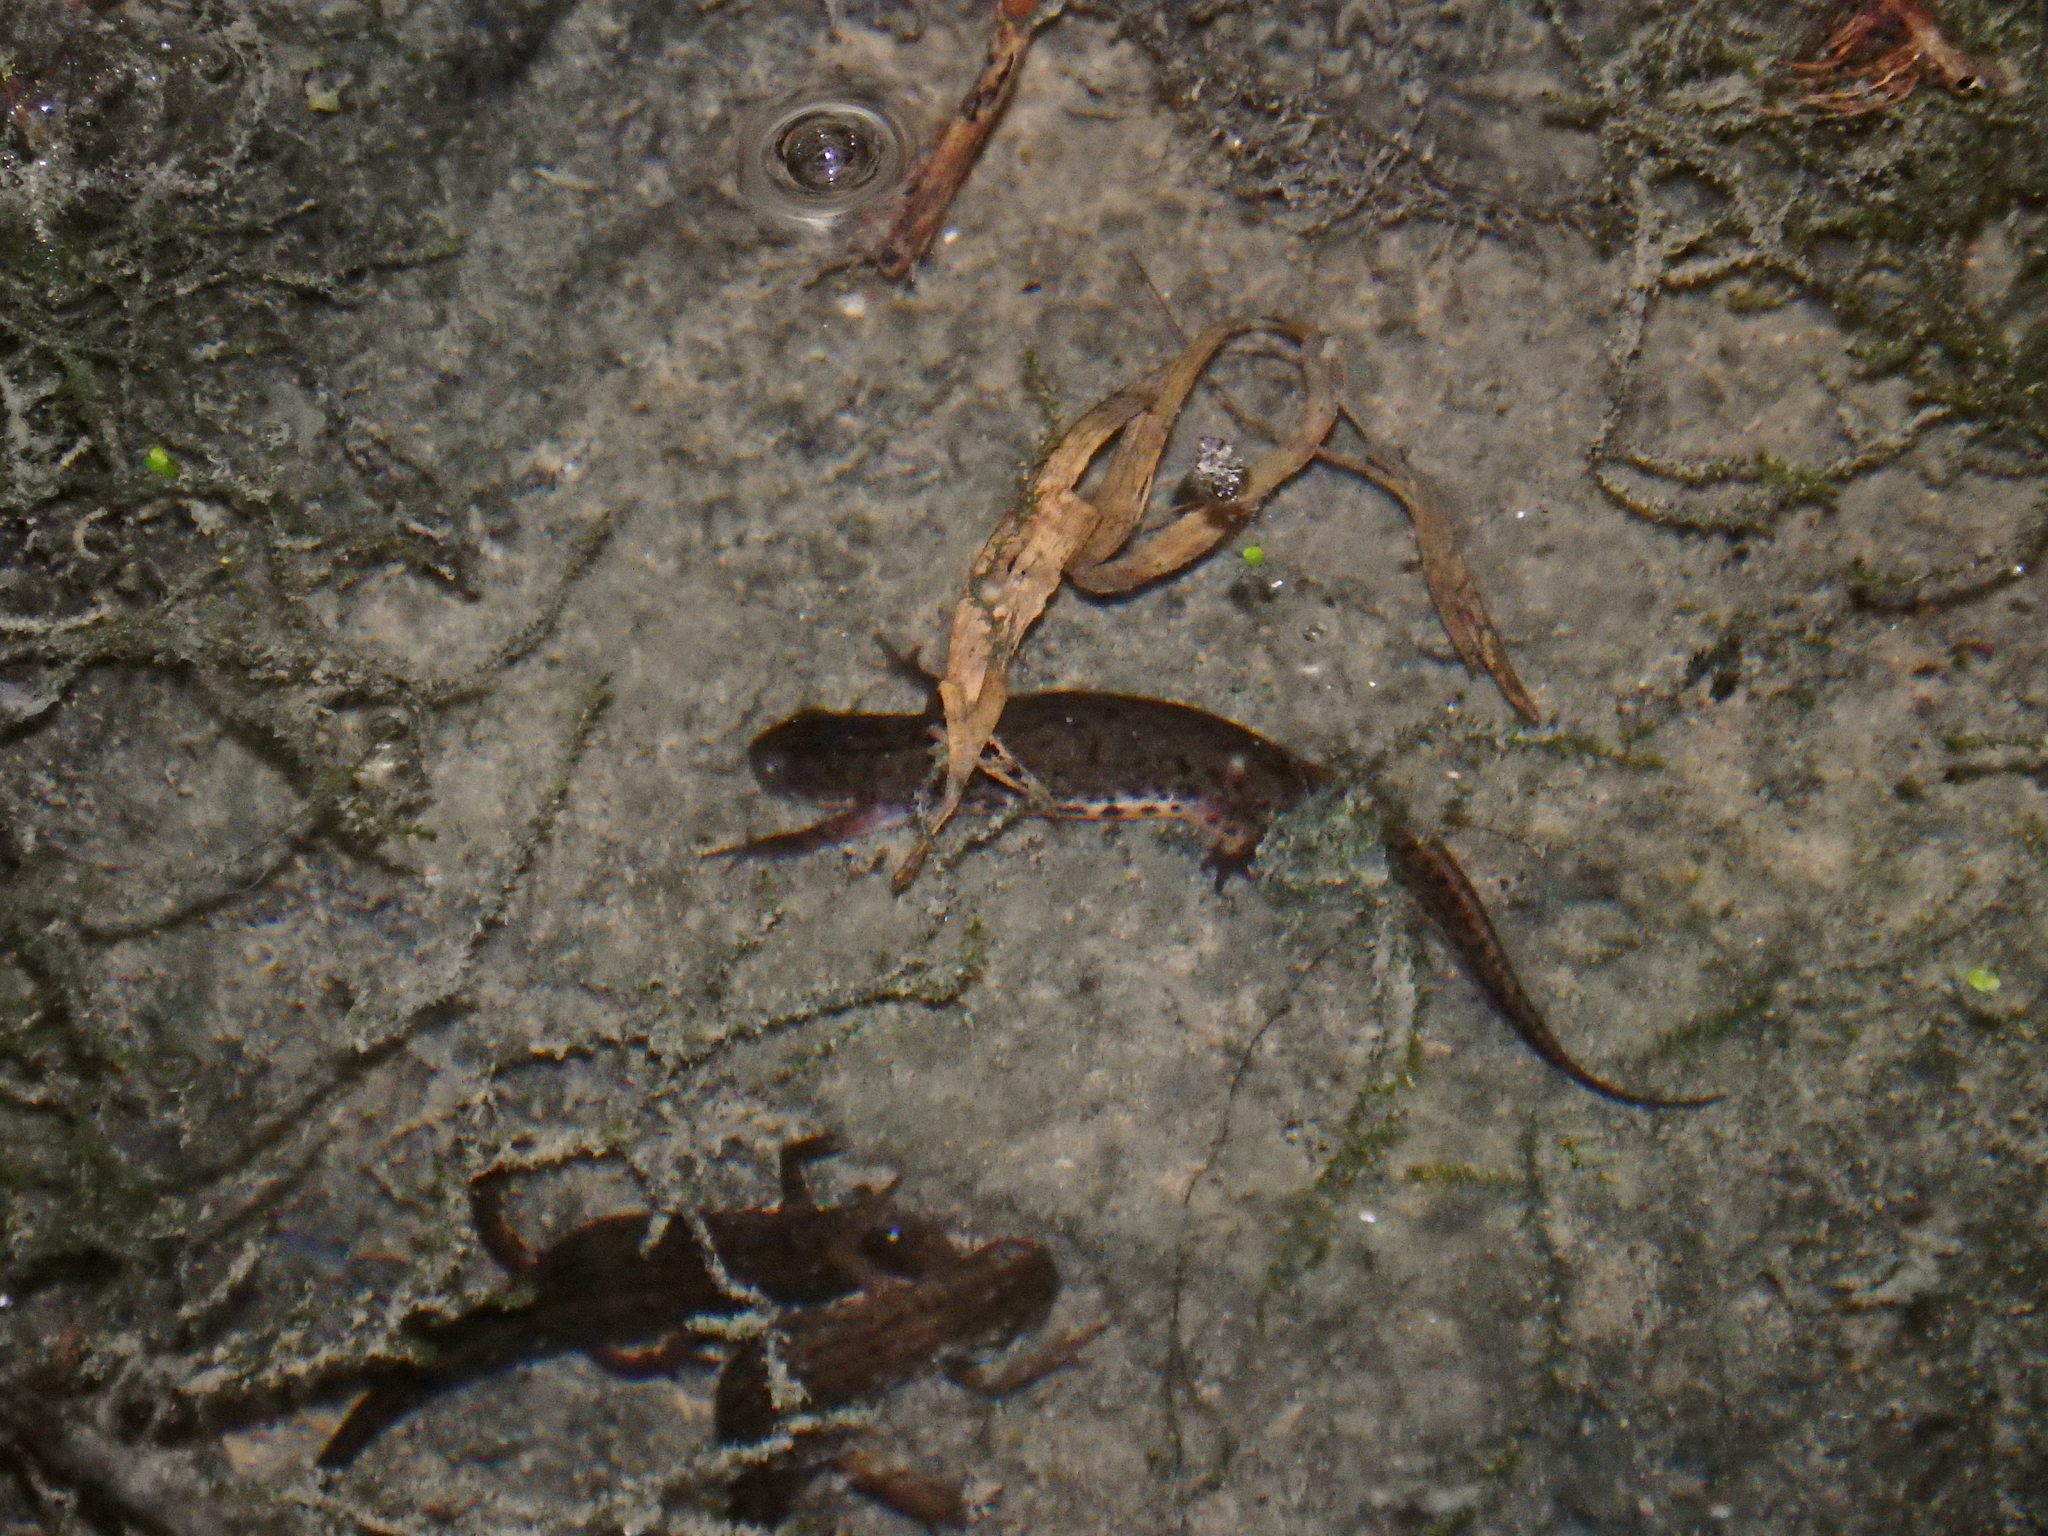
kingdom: Animalia
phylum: Chordata
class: Amphibia
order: Caudata
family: Salamandridae
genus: Lissotriton
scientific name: Lissotriton boscai
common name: Bosca's newt
